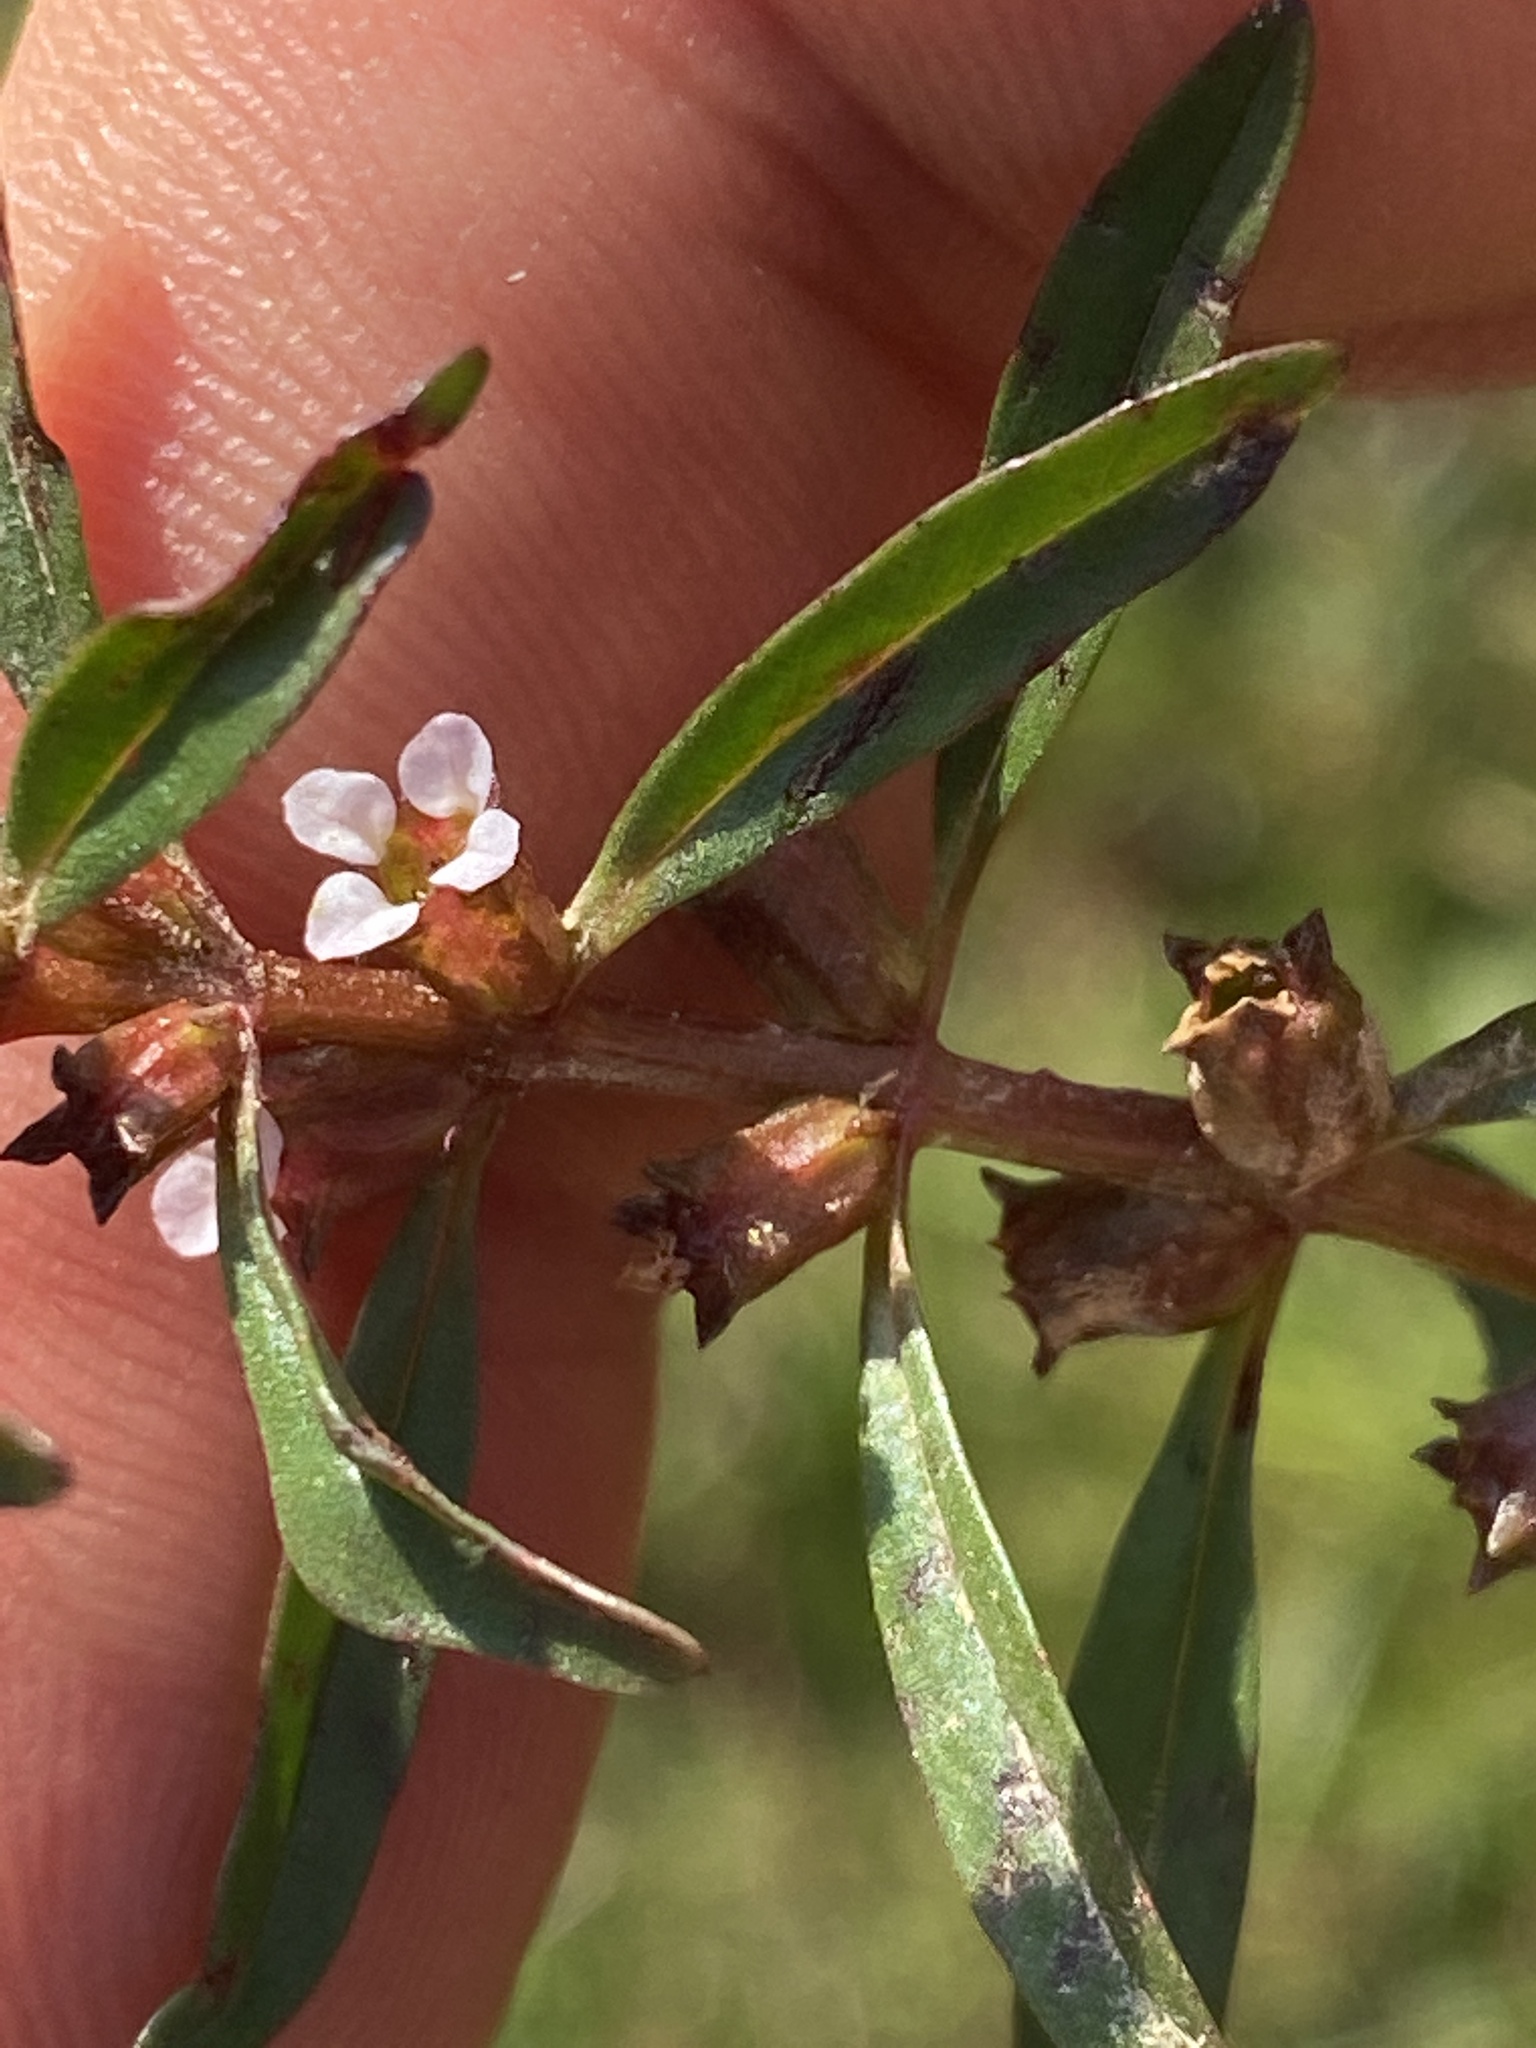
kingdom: Plantae
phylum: Tracheophyta
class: Magnoliopsida
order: Myrtales
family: Lythraceae
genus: Rotala
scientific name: Rotala ramosior
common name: Lowland rotala
